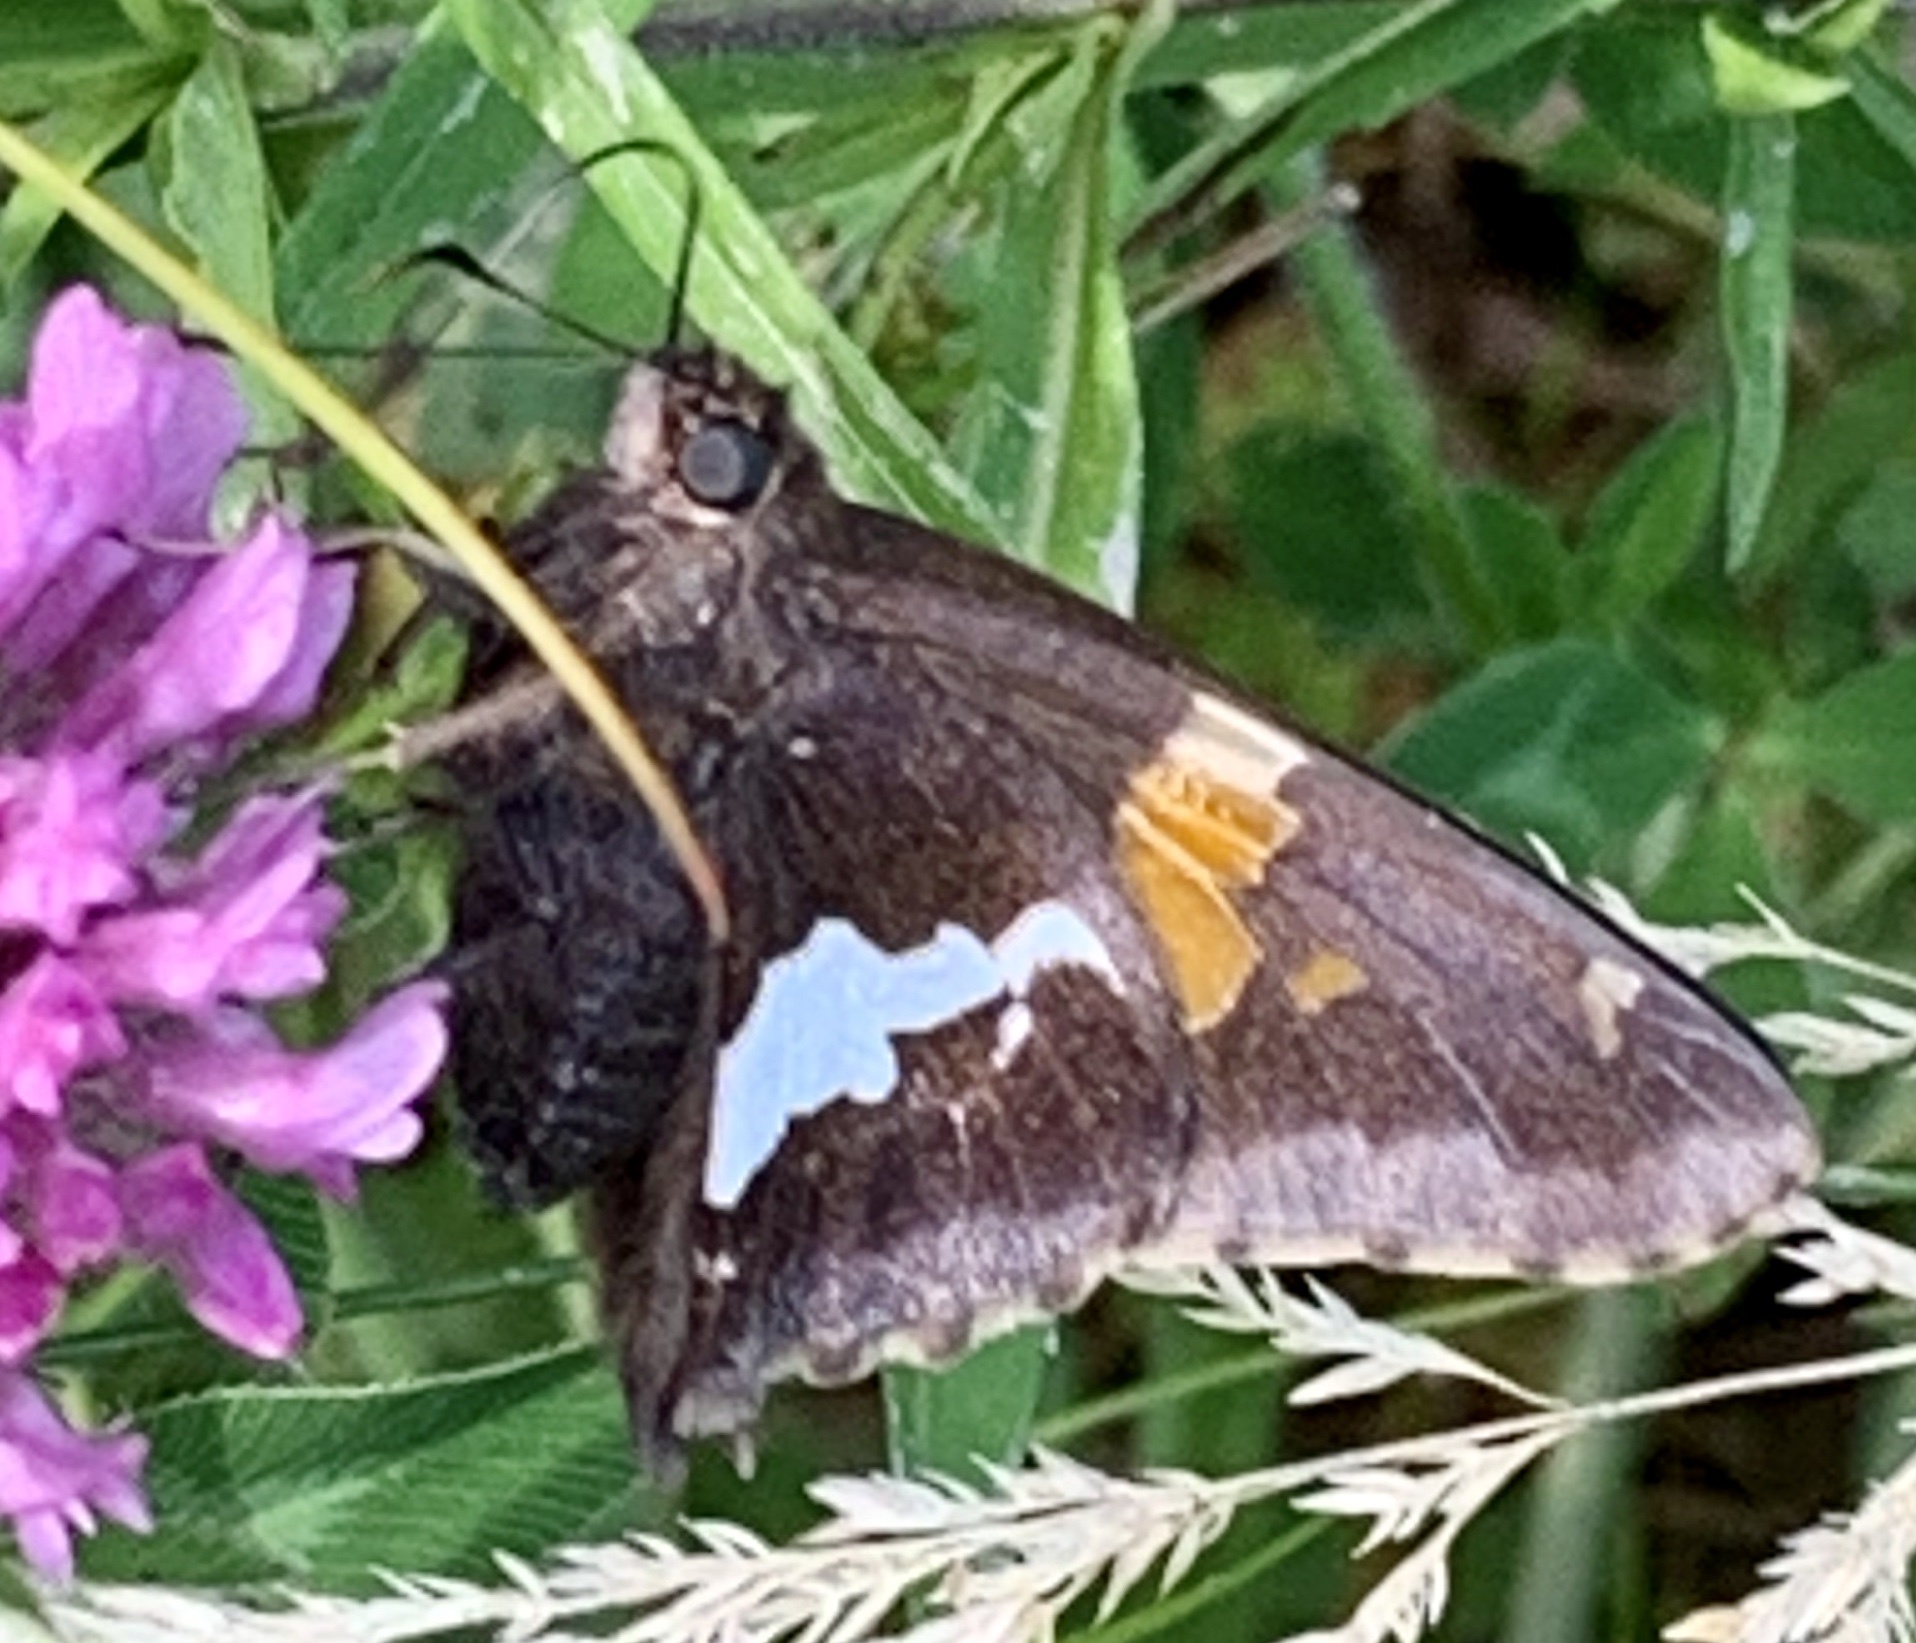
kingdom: Animalia
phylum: Arthropoda
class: Insecta
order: Lepidoptera
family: Hesperiidae
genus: Epargyreus
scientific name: Epargyreus clarus
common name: Silver-spotted skipper
